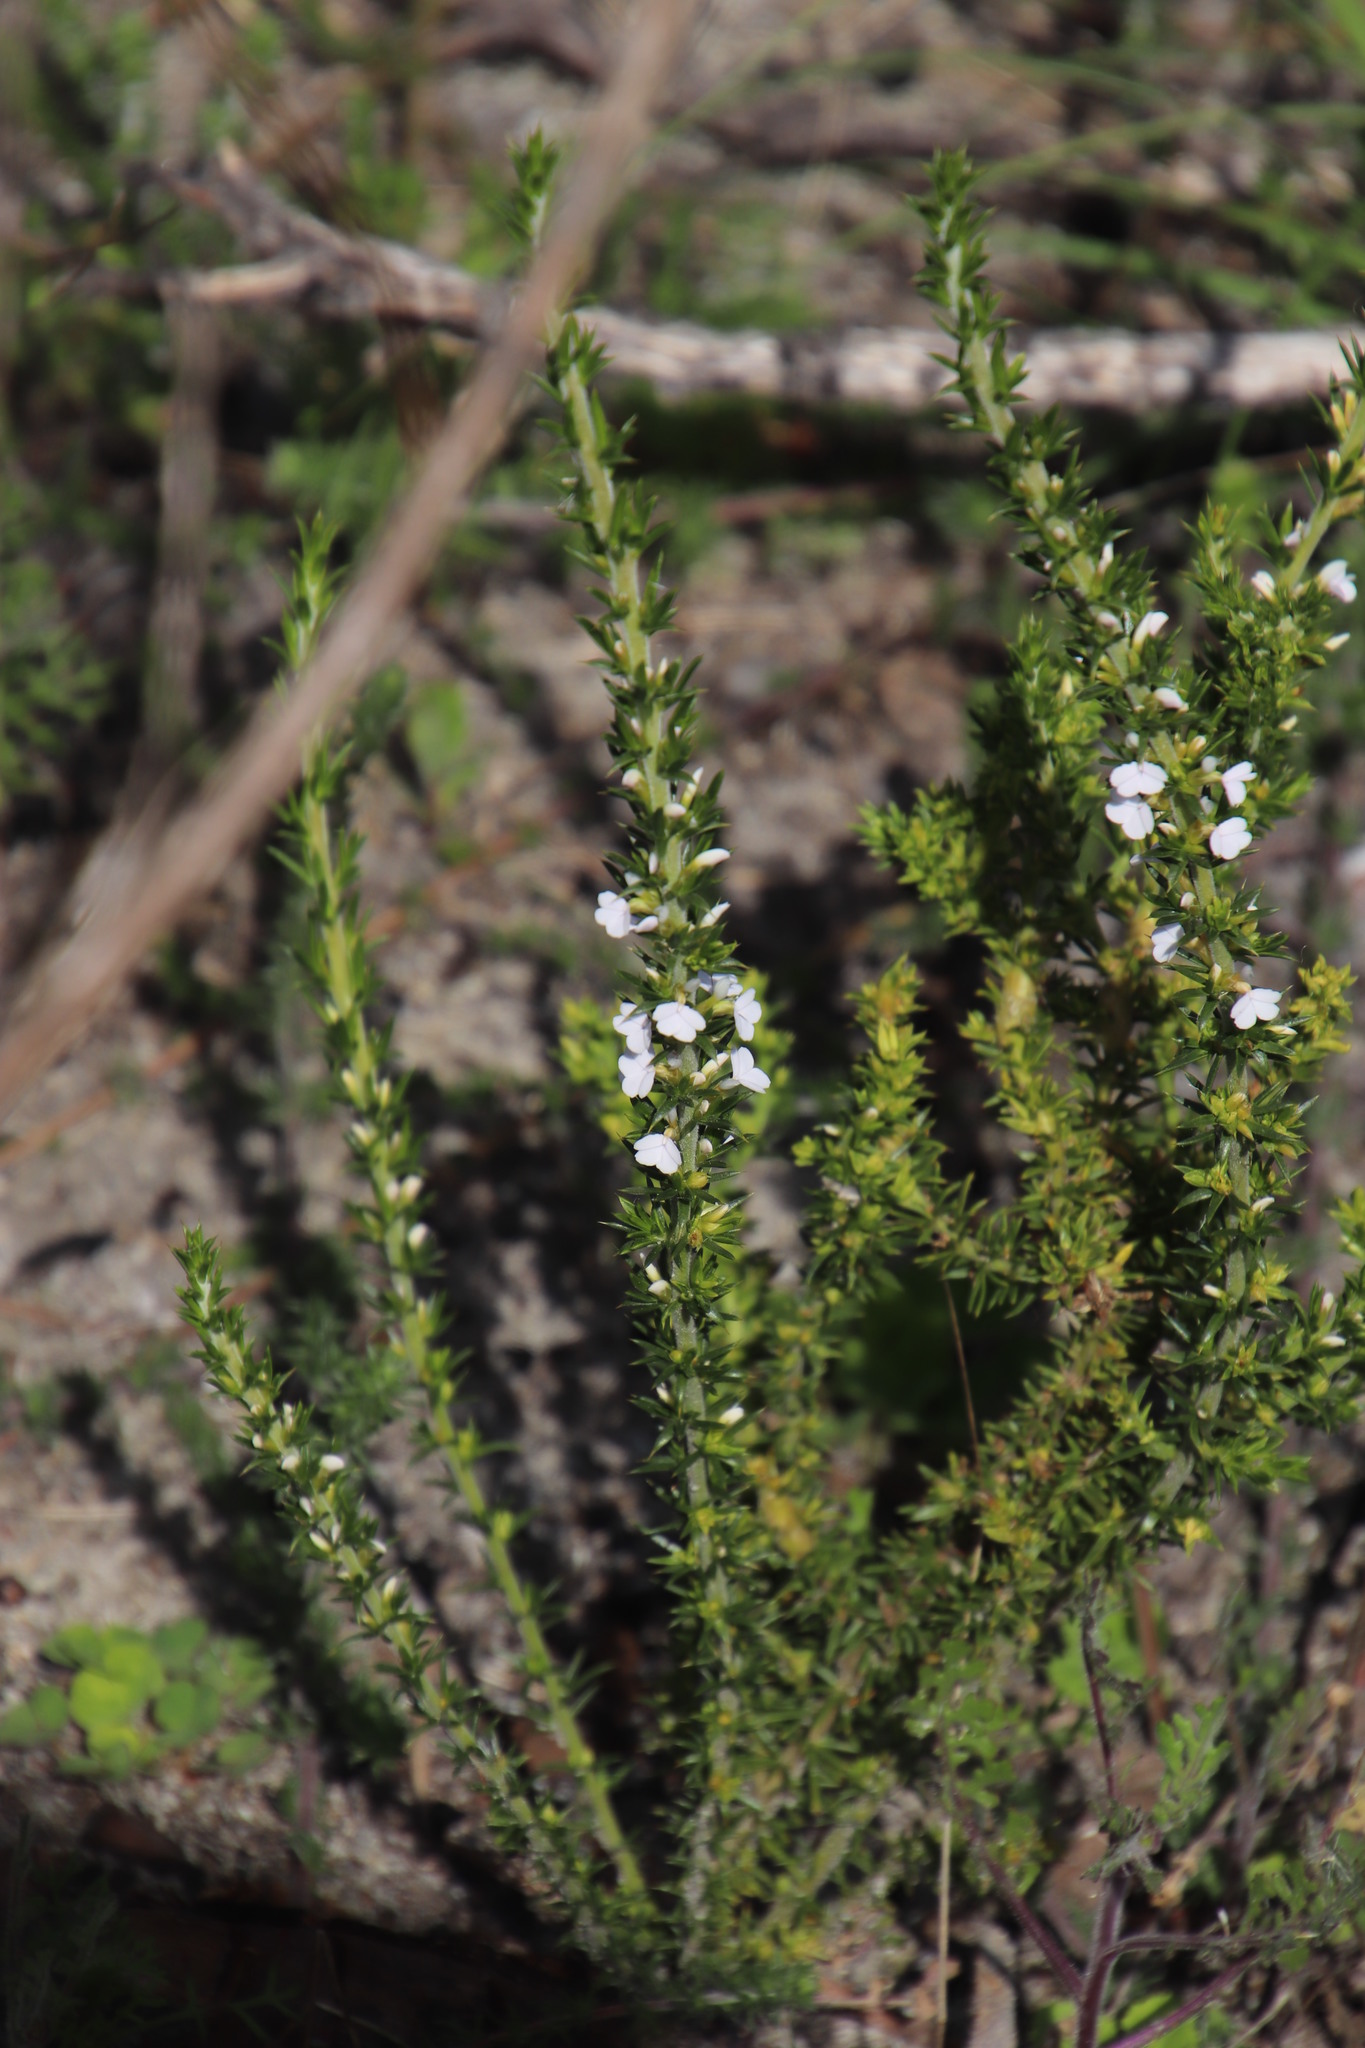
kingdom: Plantae
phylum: Tracheophyta
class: Magnoliopsida
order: Fabales
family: Polygalaceae
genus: Muraltia
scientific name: Muraltia heisteria
